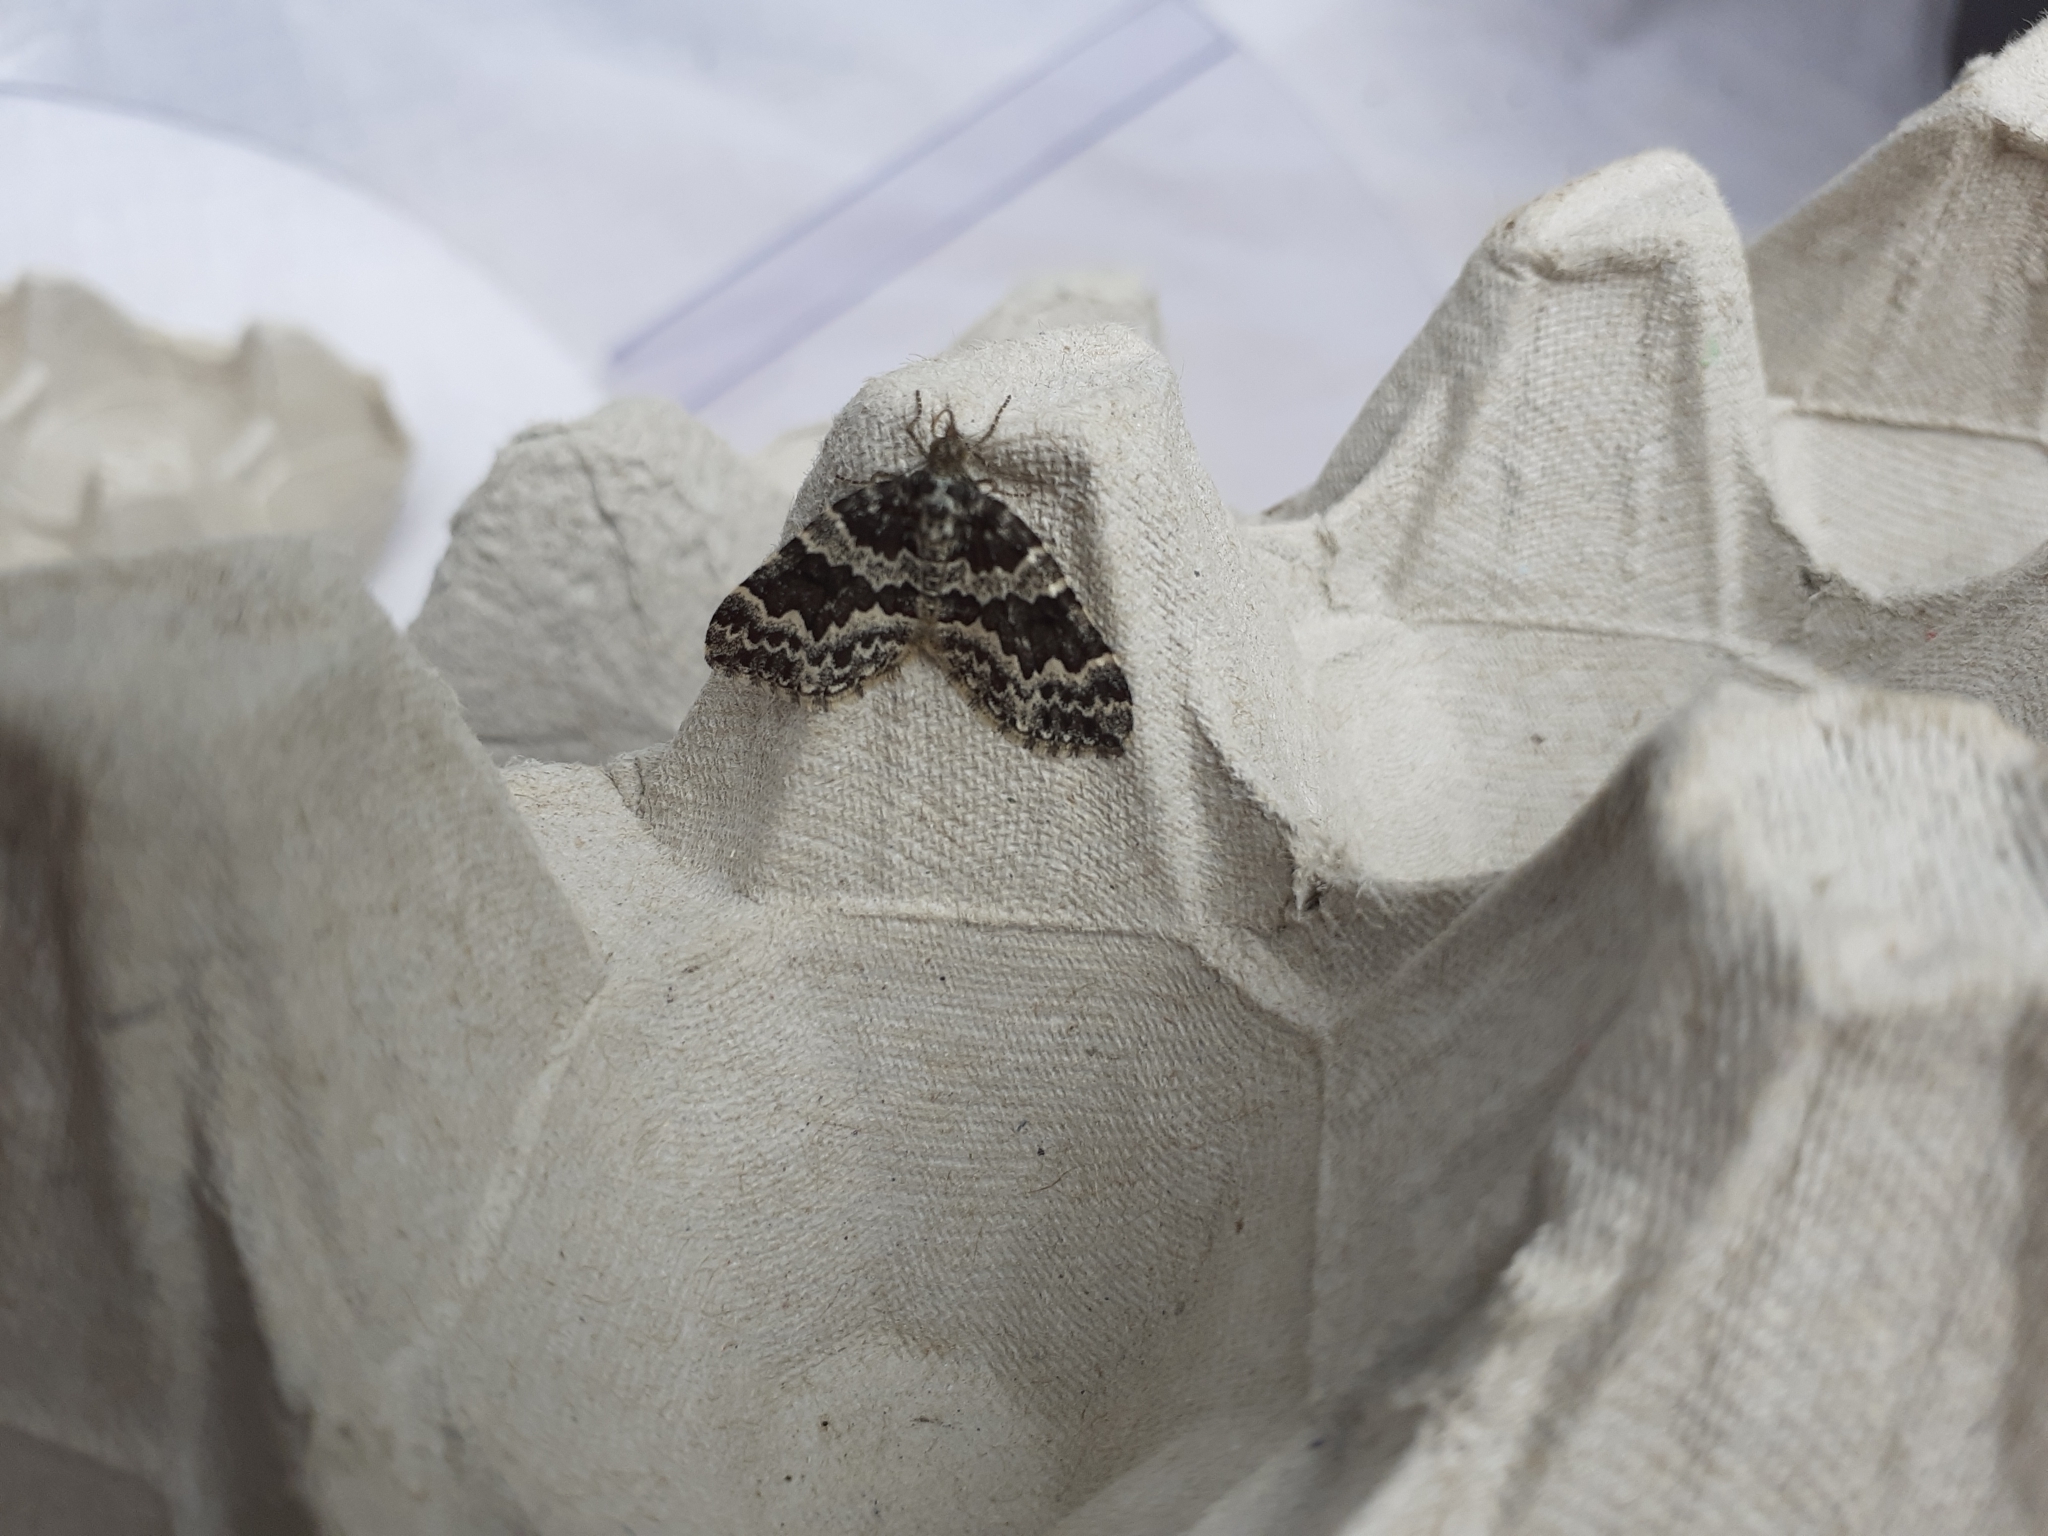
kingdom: Animalia
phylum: Arthropoda
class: Insecta
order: Lepidoptera
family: Geometridae
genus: Electrophaes
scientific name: Electrophaes corylata
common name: Broken-barred carpet
